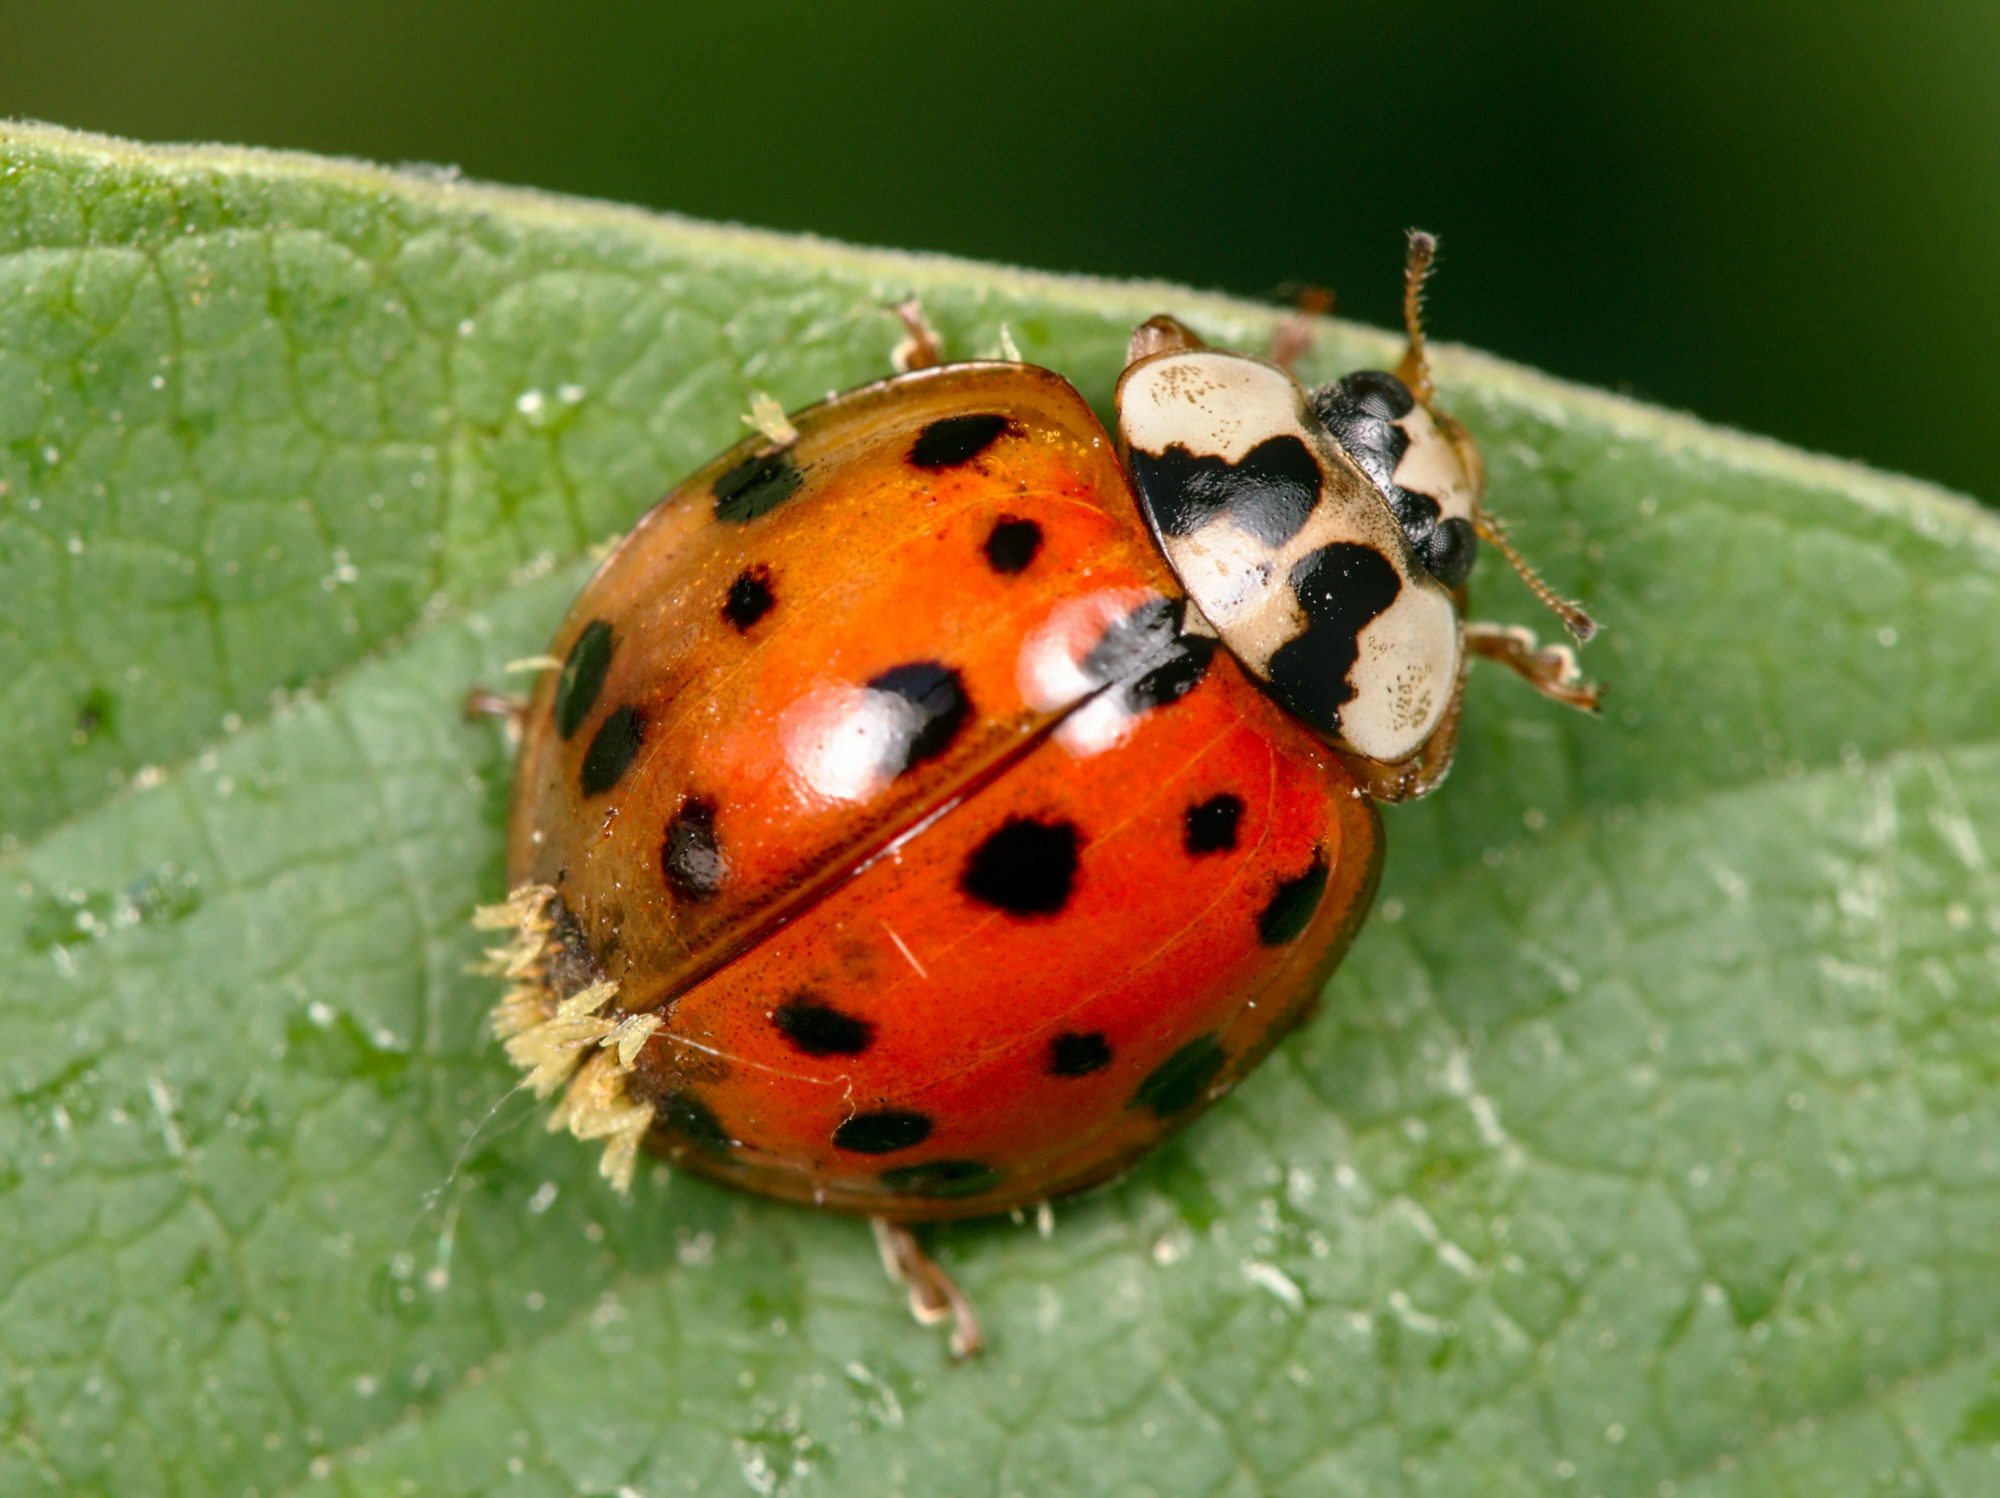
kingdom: Fungi
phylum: Ascomycota
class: Laboulbeniomycetes
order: Laboulbeniales
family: Laboulbeniaceae
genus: Hesperomyces
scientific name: Hesperomyces harmoniae
